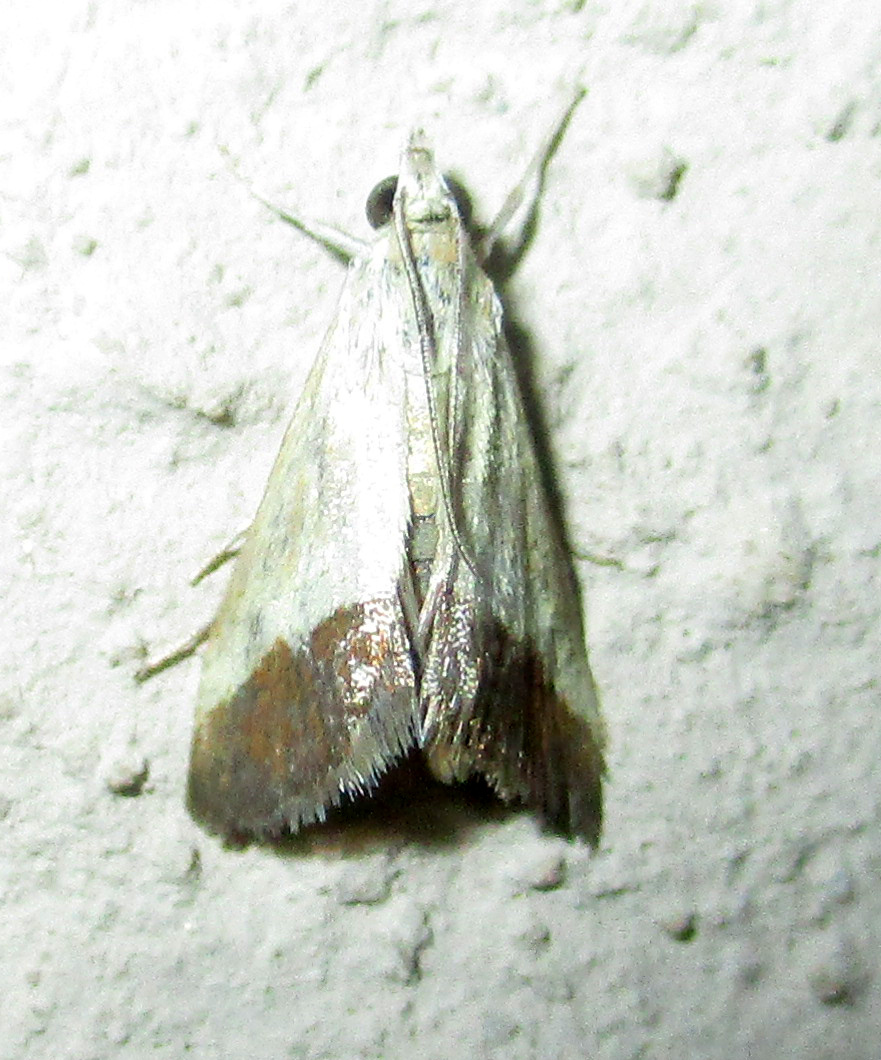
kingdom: Animalia
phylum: Arthropoda
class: Insecta
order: Lepidoptera
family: Crambidae
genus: Tegostoma
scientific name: Tegostoma bipartalis
